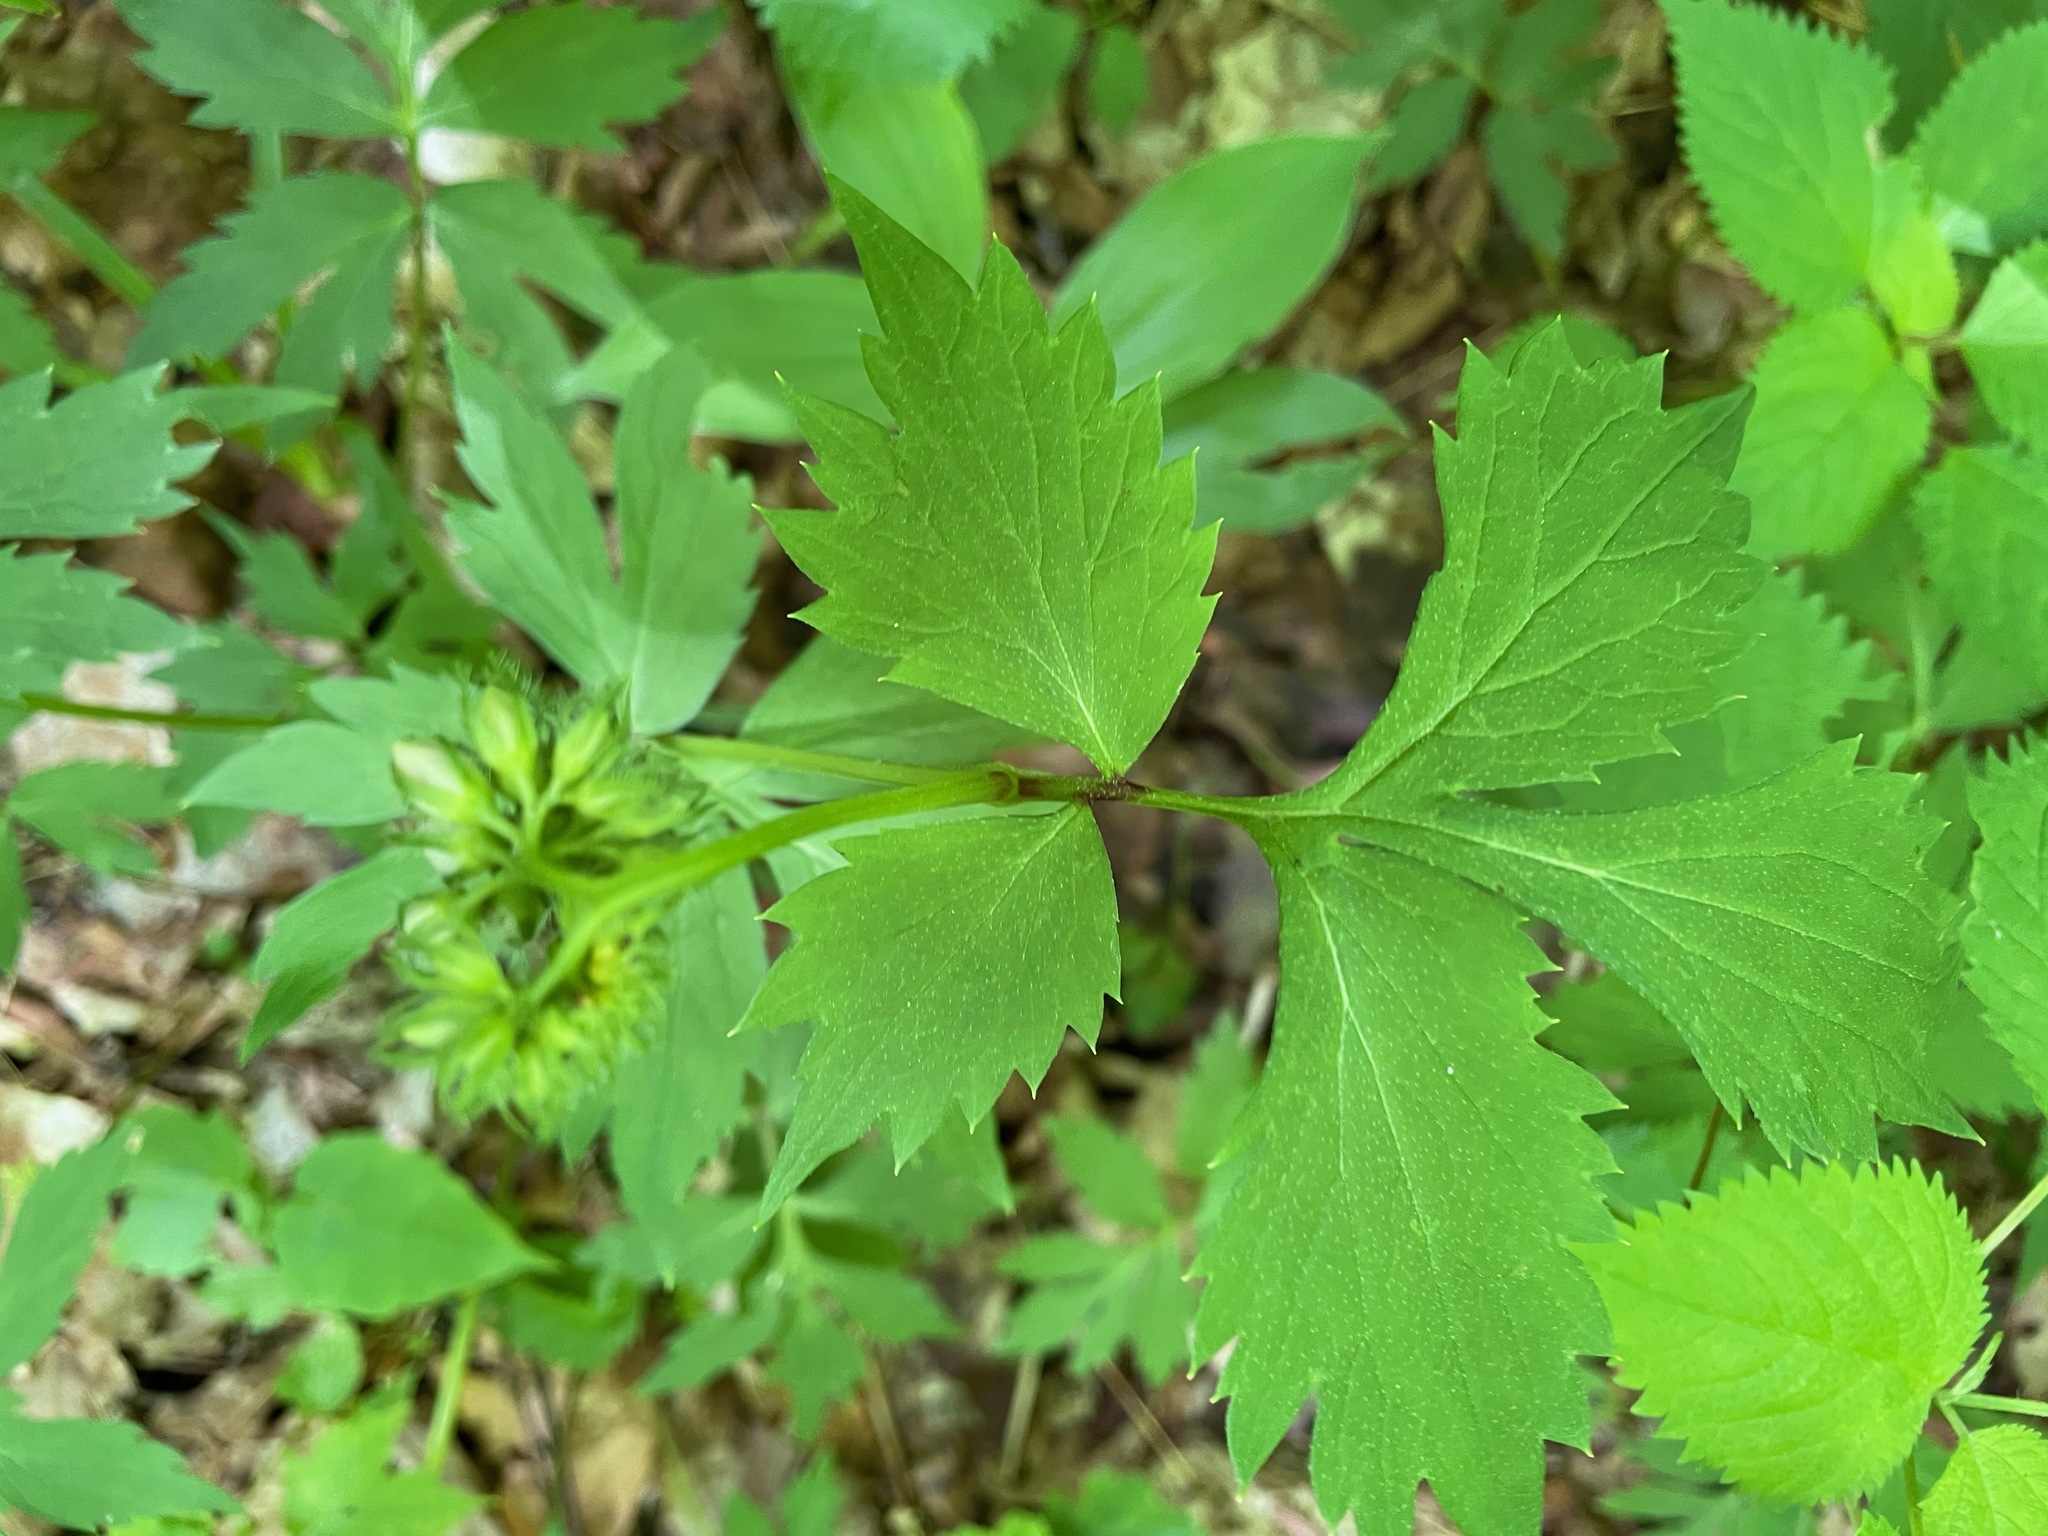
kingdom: Plantae
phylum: Tracheophyta
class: Magnoliopsida
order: Boraginales
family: Hydrophyllaceae
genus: Hydrophyllum
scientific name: Hydrophyllum virginianum
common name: Virginia waterleaf
